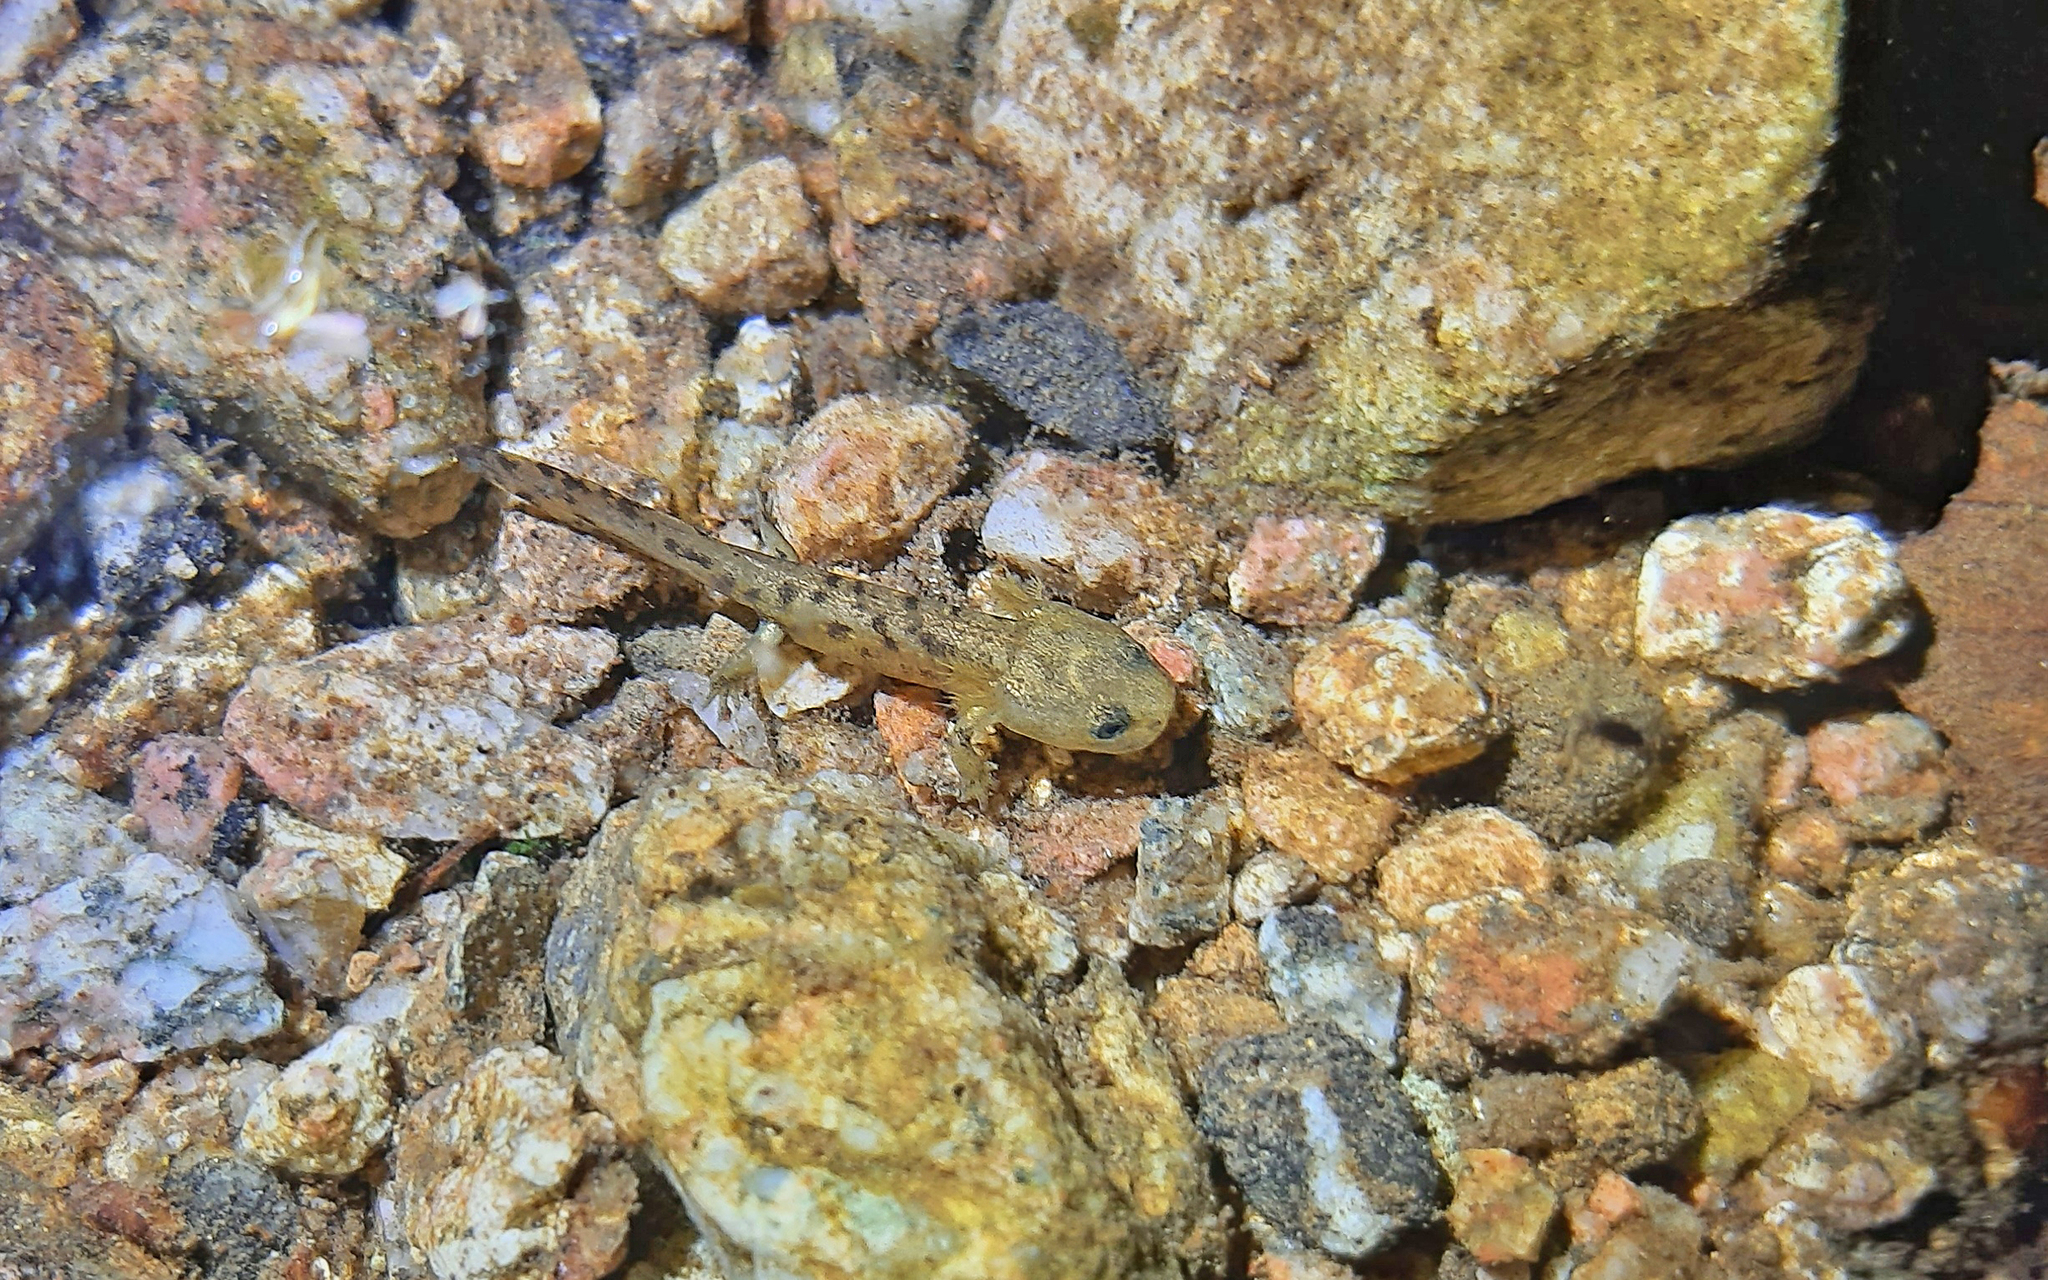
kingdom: Animalia
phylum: Chordata
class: Amphibia
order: Caudata
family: Salamandridae
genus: Salamandra
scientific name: Salamandra corsica
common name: Corsican fire salamander
